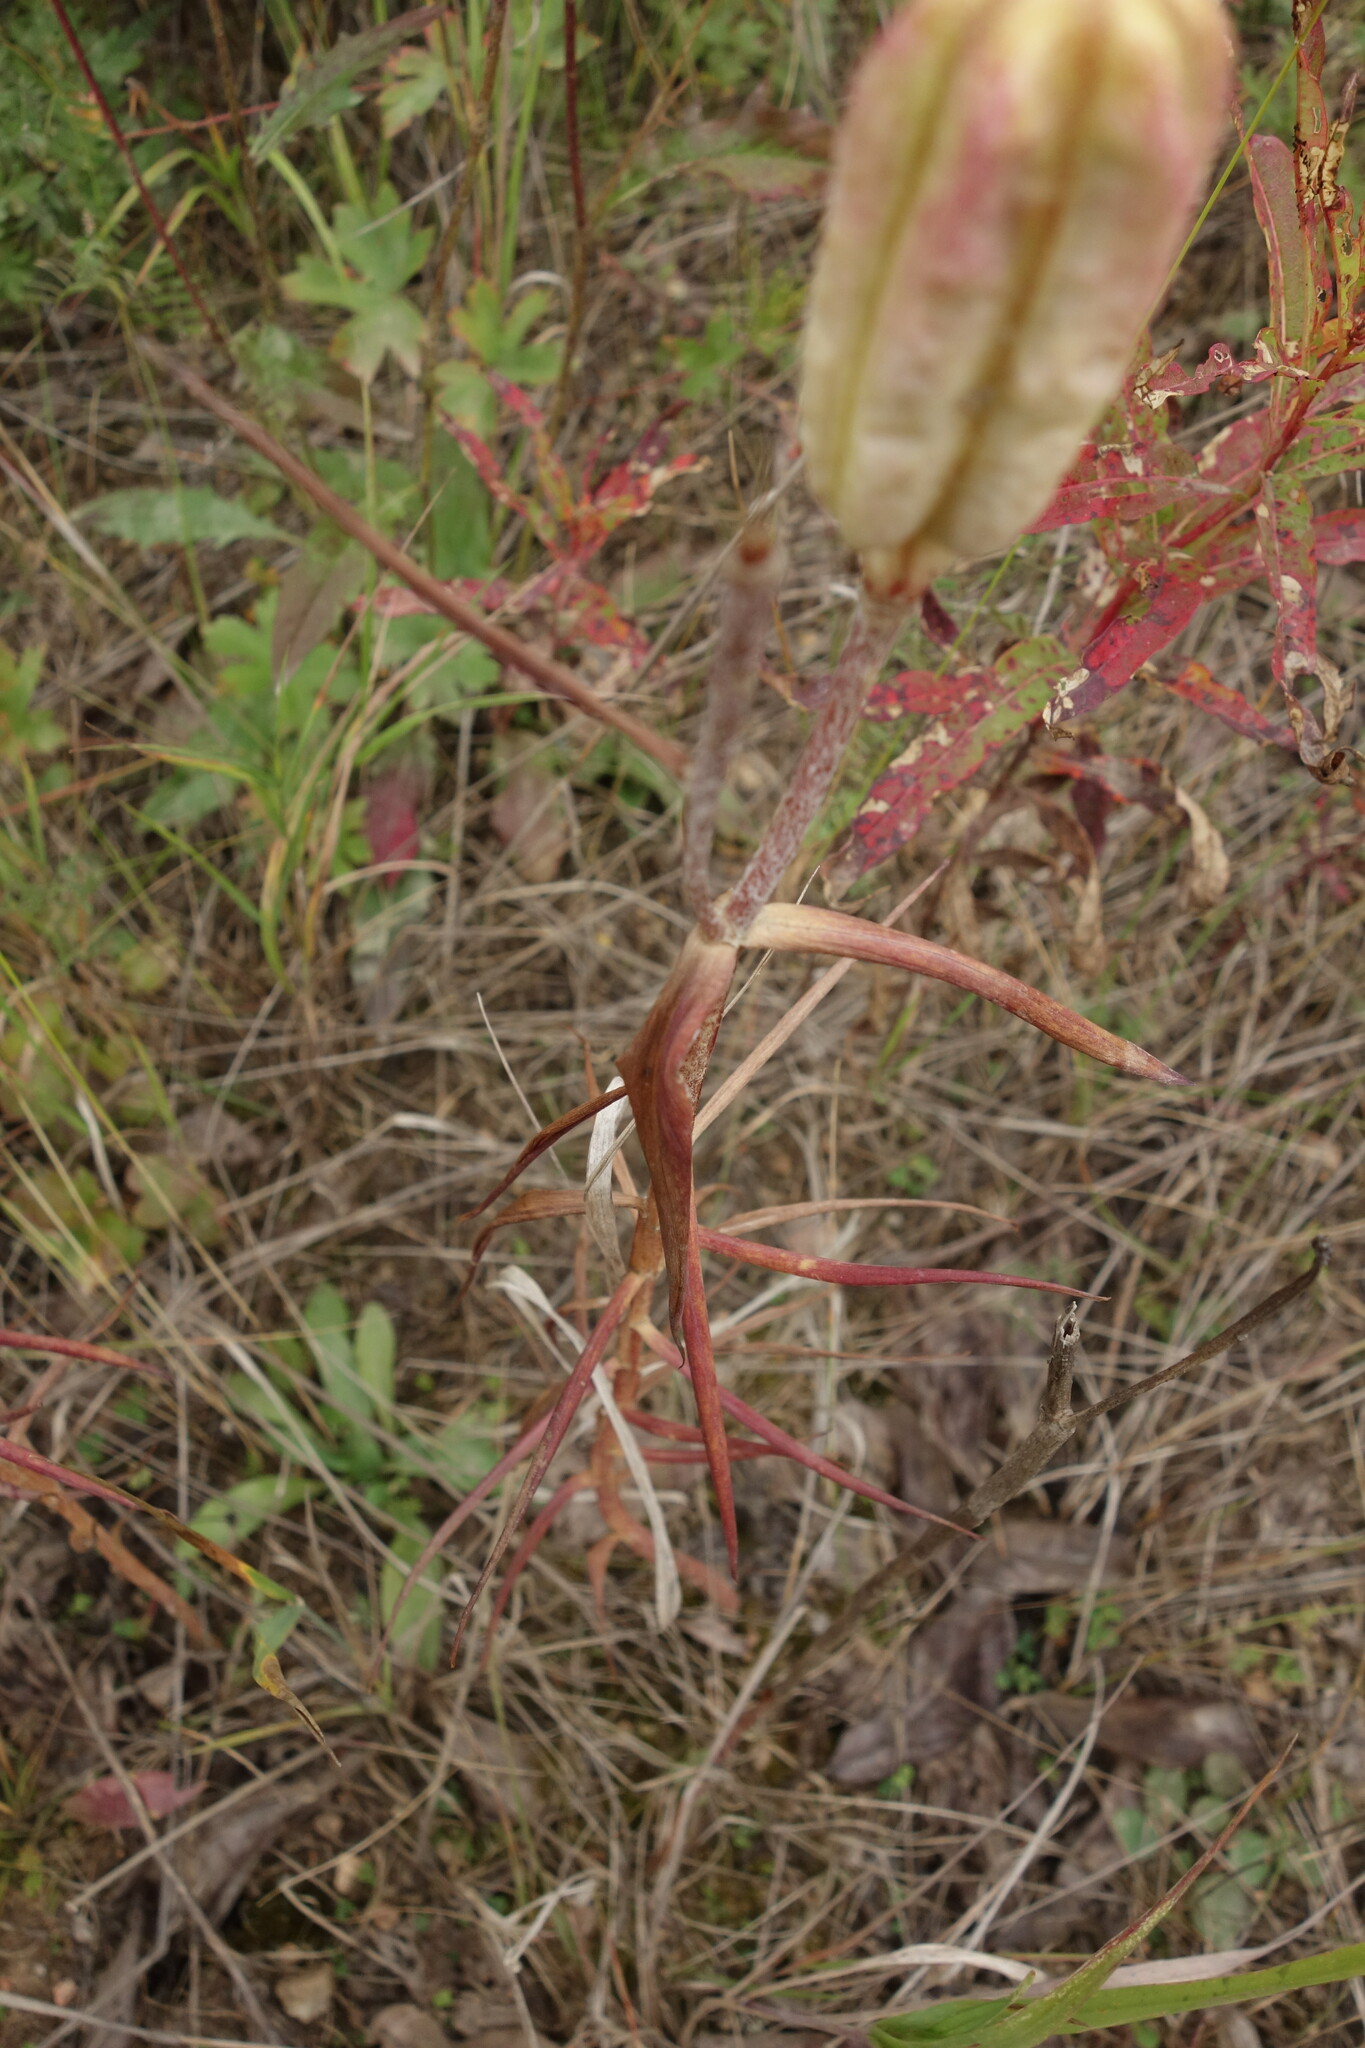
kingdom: Plantae
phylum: Tracheophyta
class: Liliopsida
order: Liliales
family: Liliaceae
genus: Lilium
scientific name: Lilium pensylvanicum
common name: Candlestick lily
